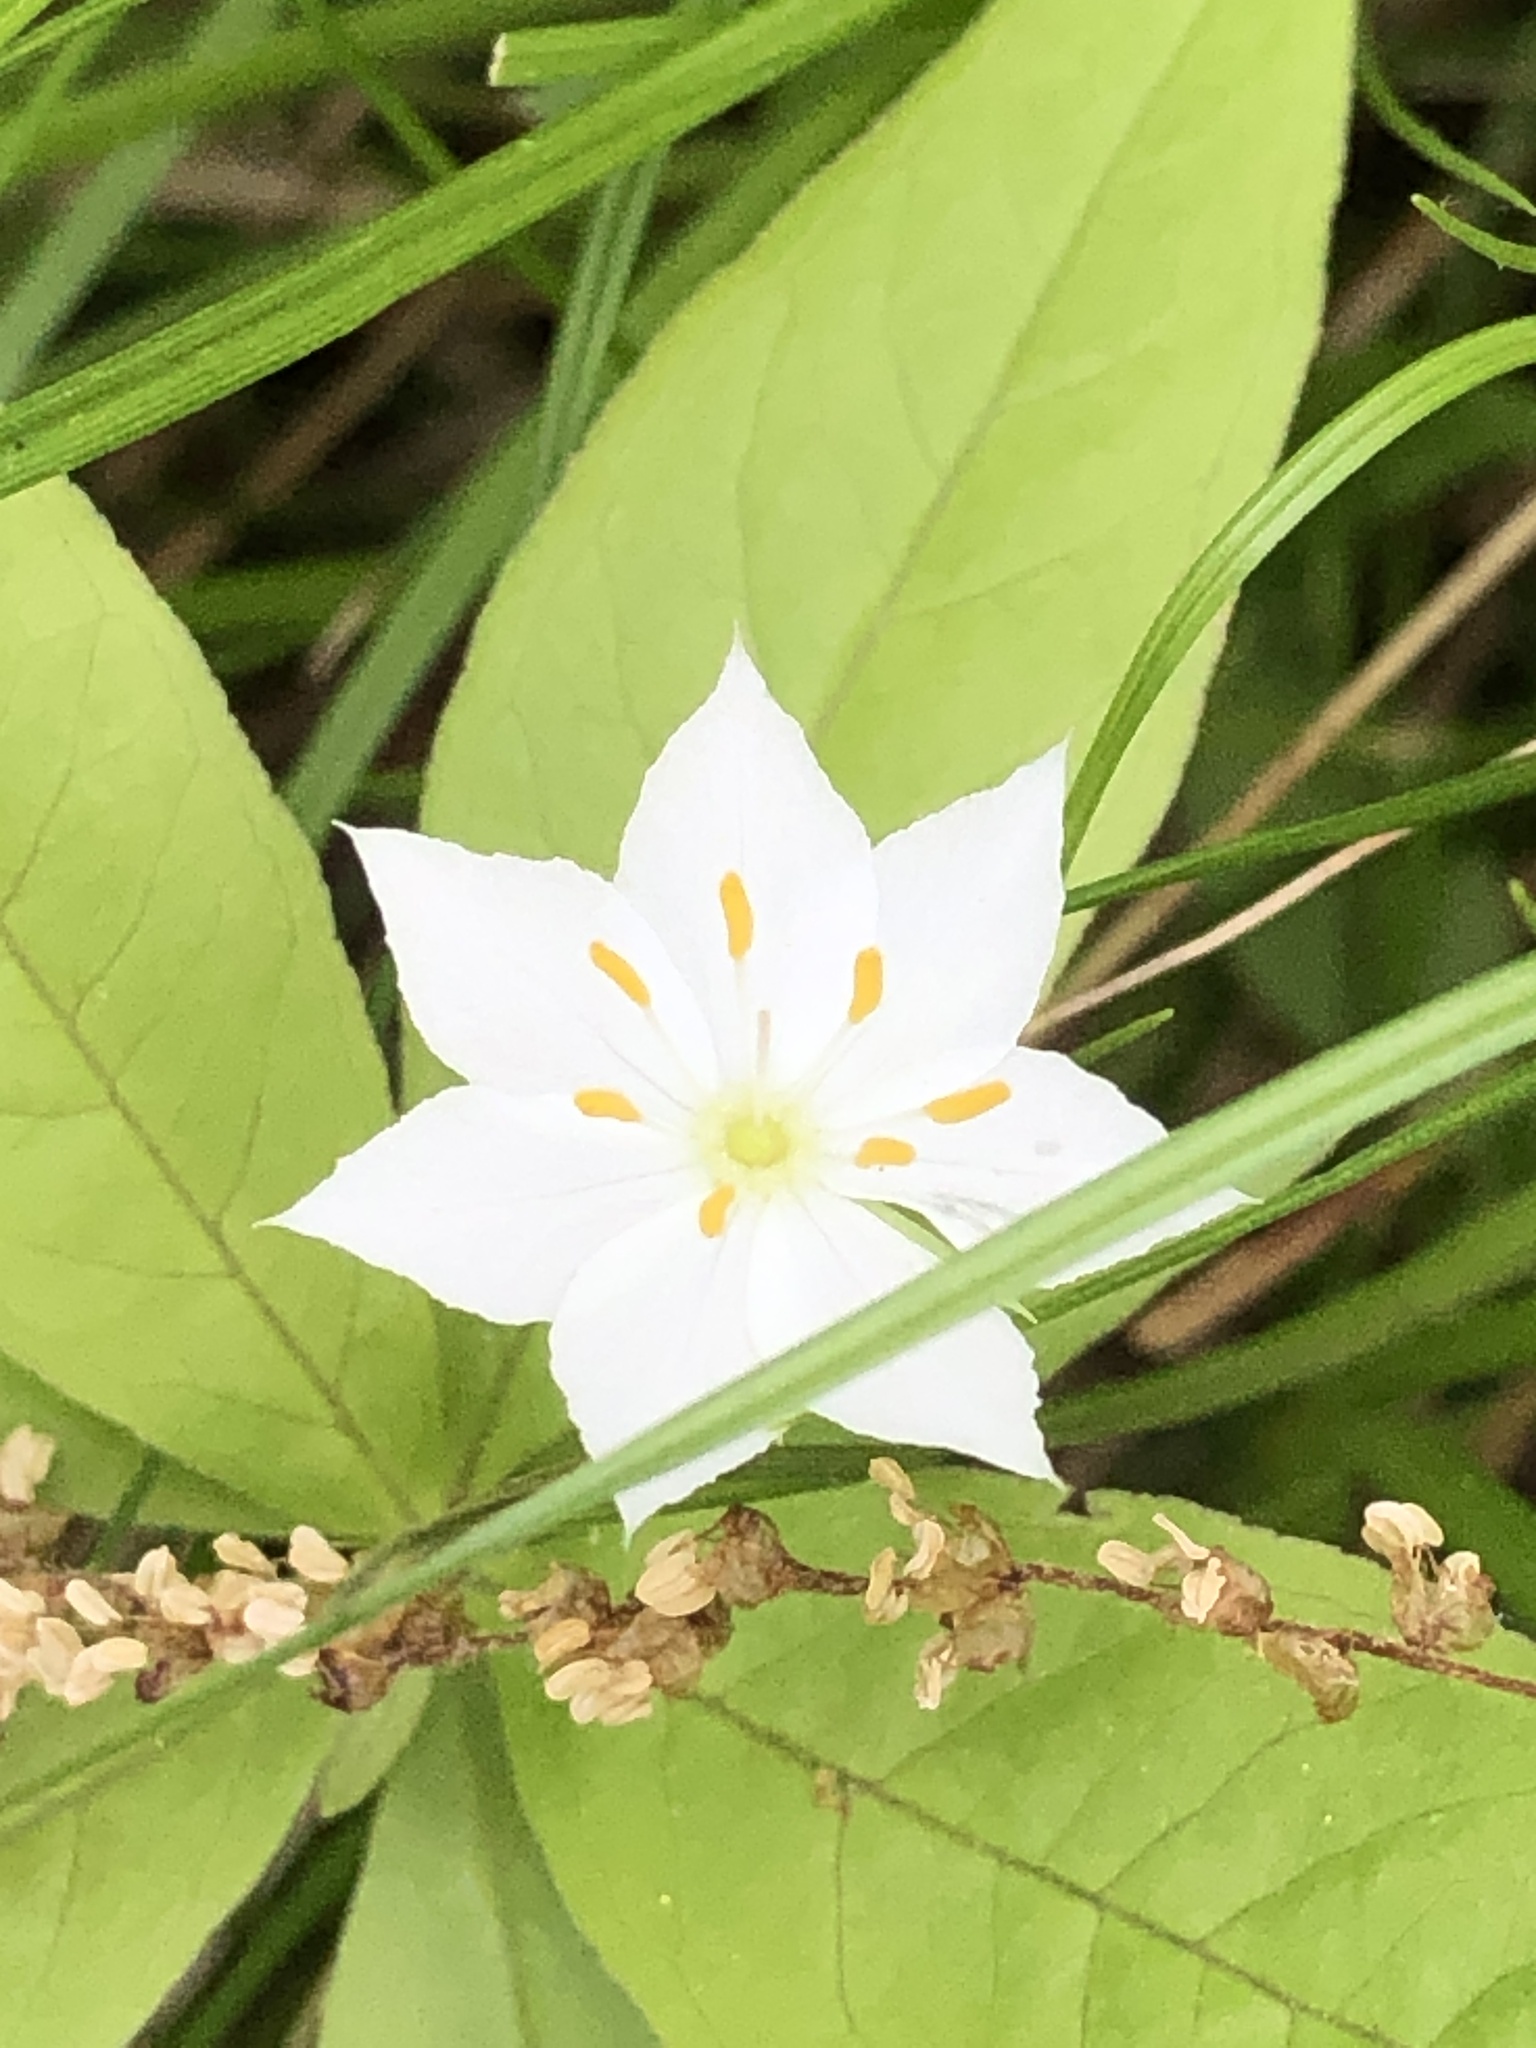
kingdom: Plantae
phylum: Tracheophyta
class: Magnoliopsida
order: Ericales
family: Primulaceae
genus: Lysimachia
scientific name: Lysimachia borealis
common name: American starflower
